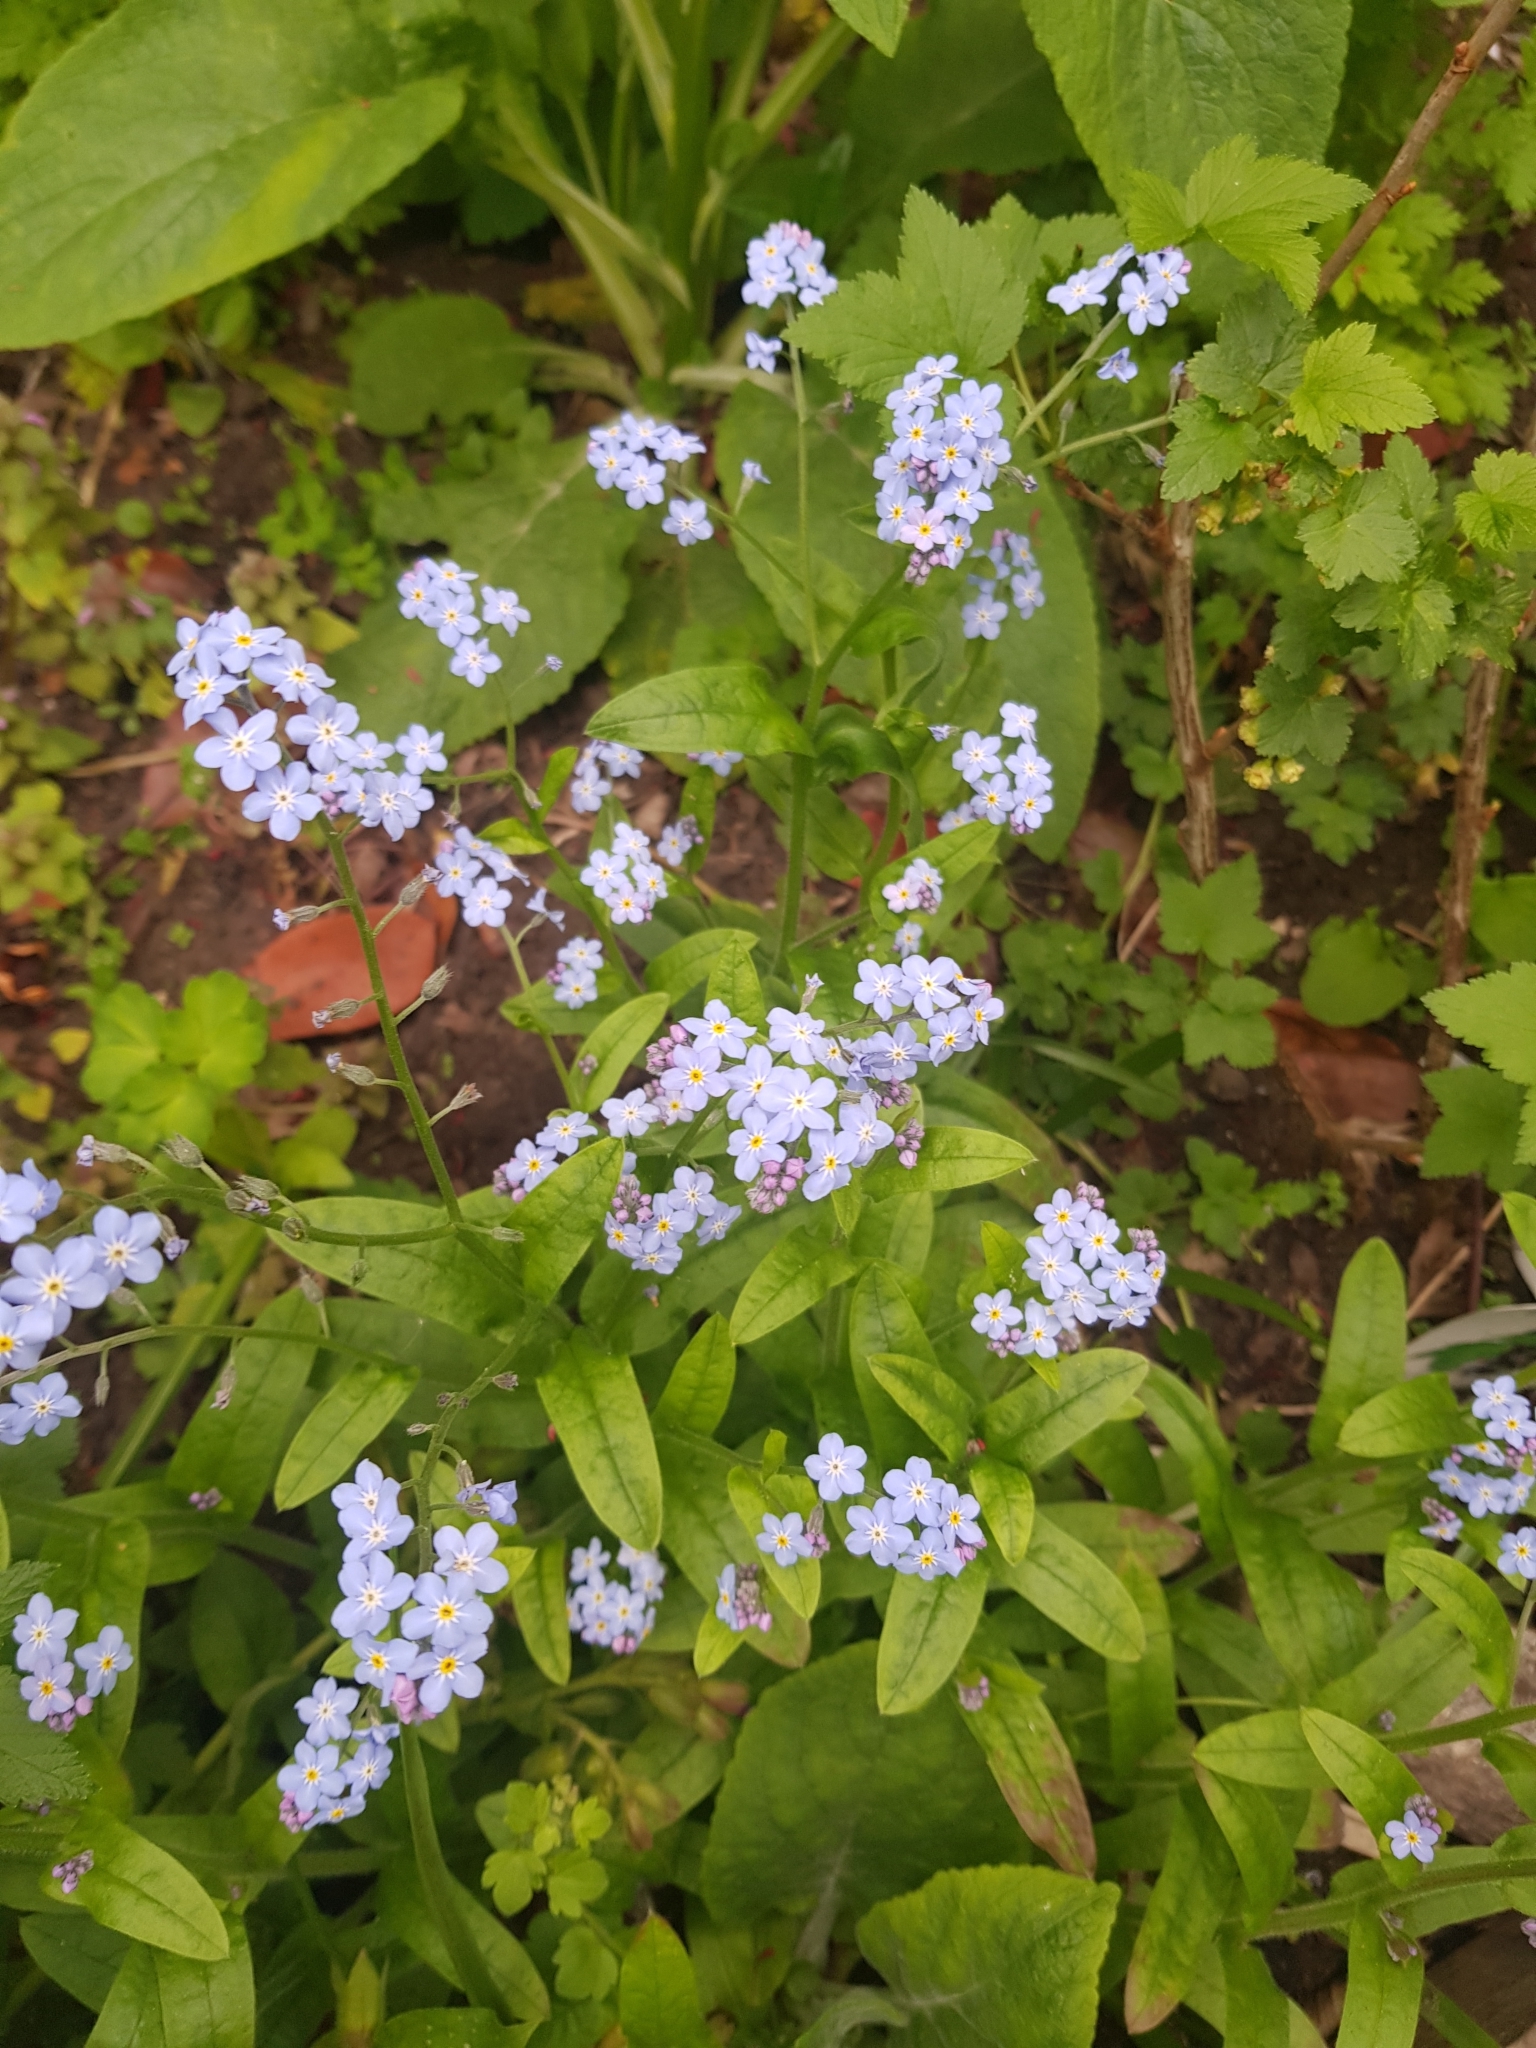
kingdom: Plantae
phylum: Tracheophyta
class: Magnoliopsida
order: Boraginales
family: Boraginaceae
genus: Myosotis
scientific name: Myosotis sylvatica
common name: Wood forget-me-not
